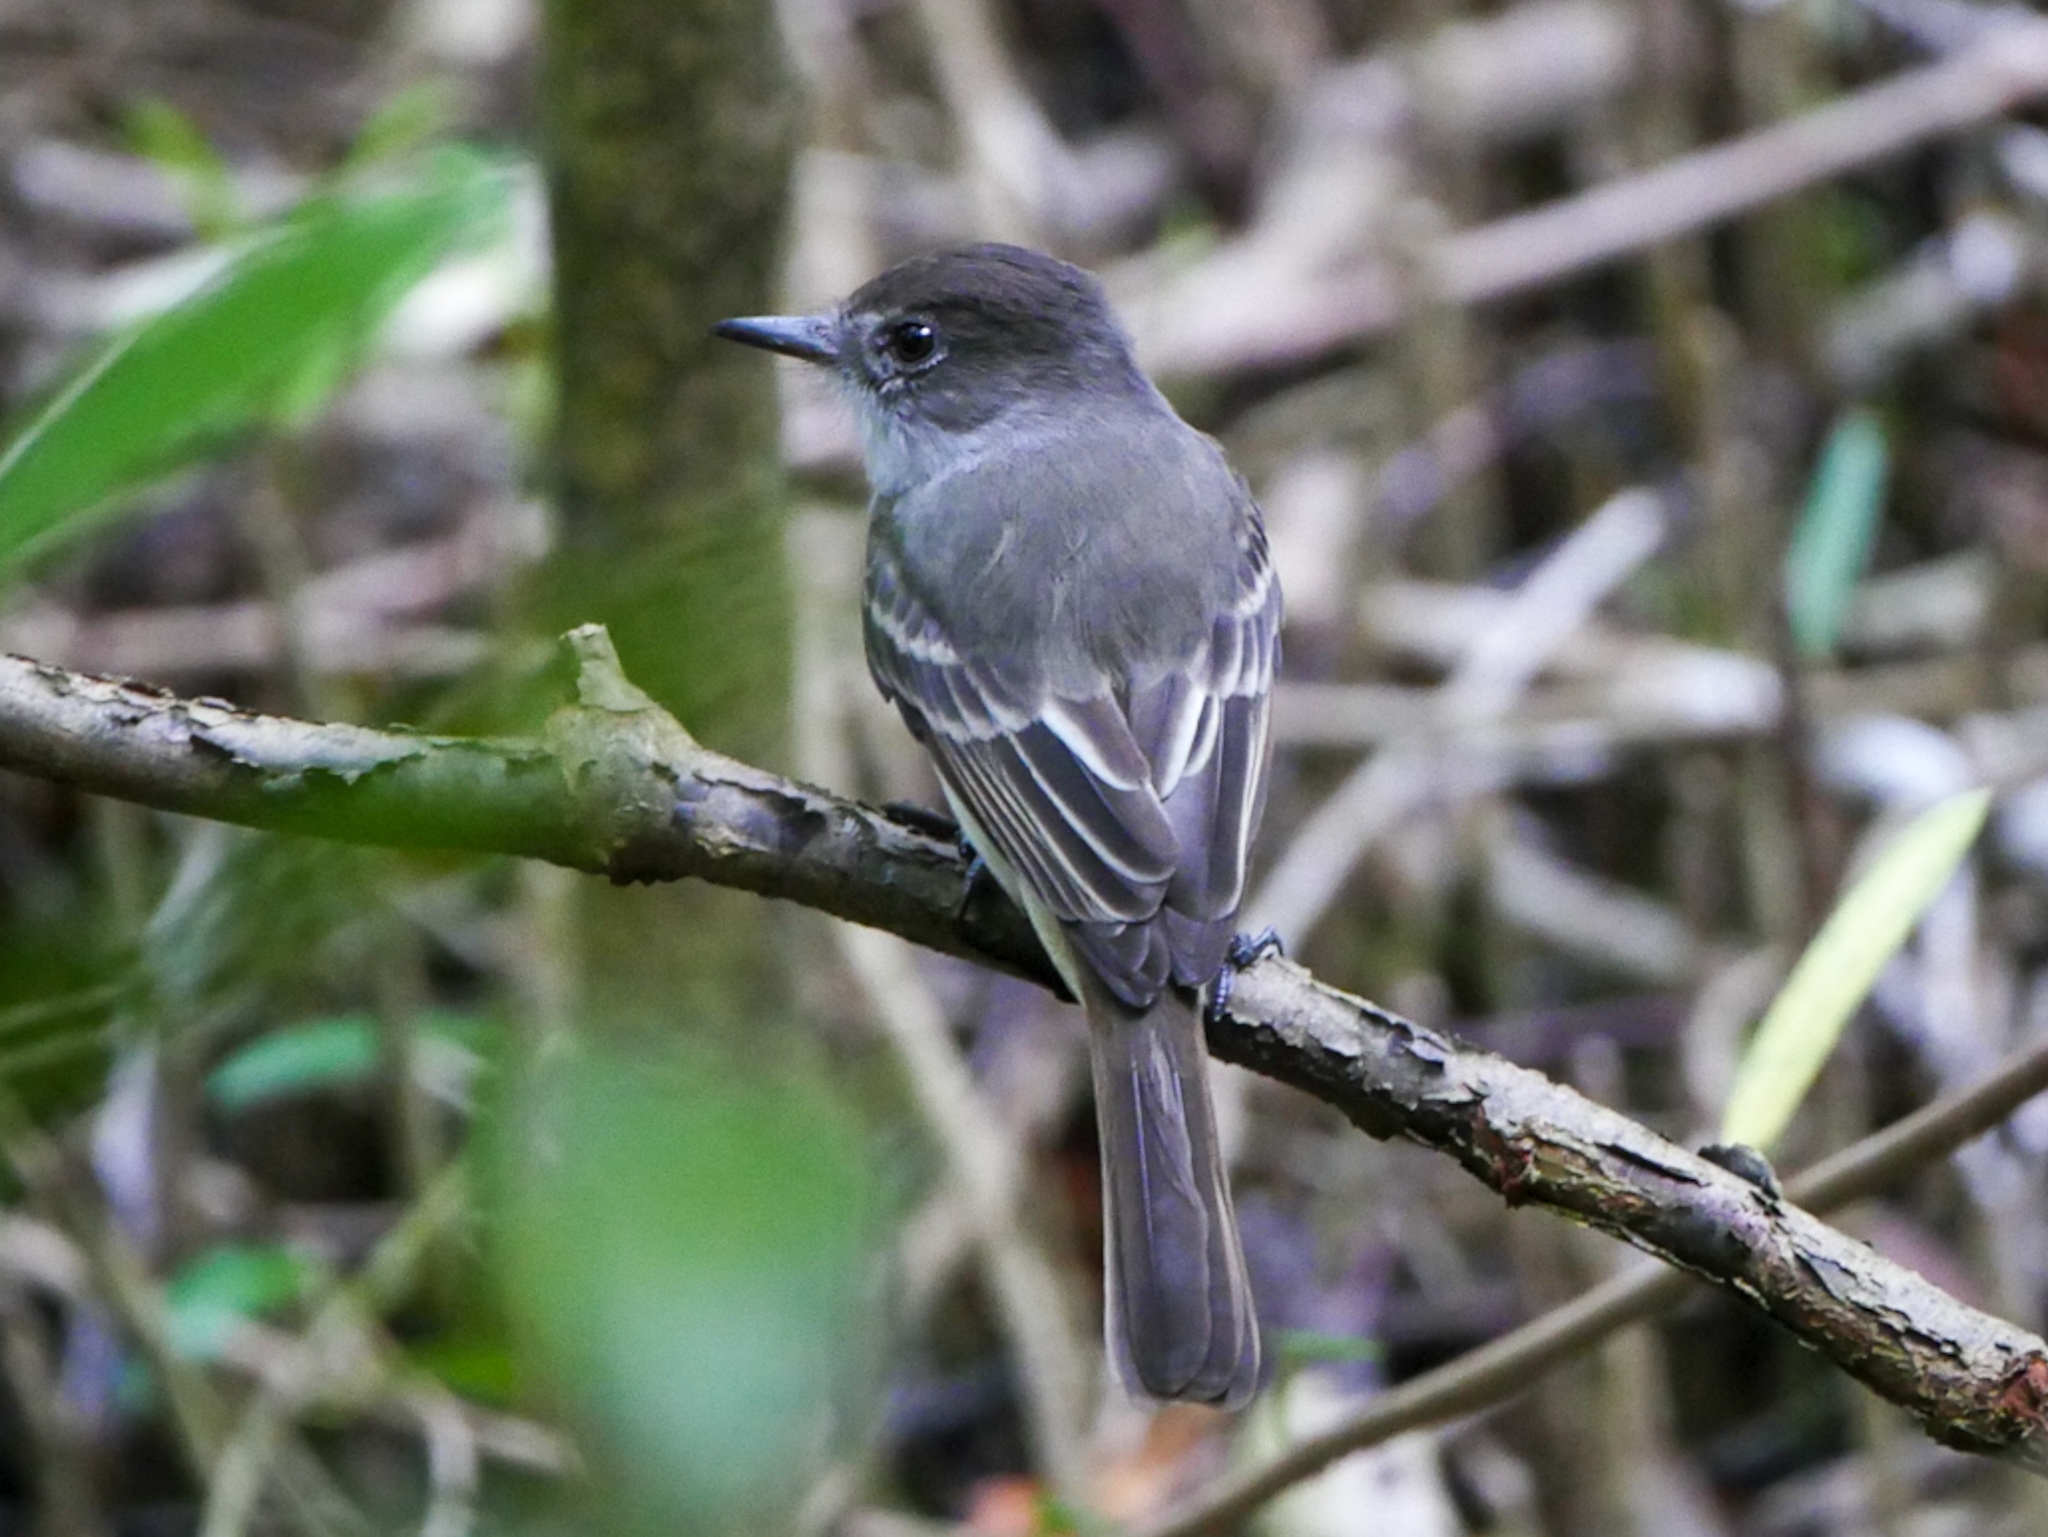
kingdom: Animalia
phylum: Chordata
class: Aves
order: Passeriformes
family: Tyrannidae
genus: Myiarchus
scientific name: Myiarchus sagrae
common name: La sagra's flycatcher
